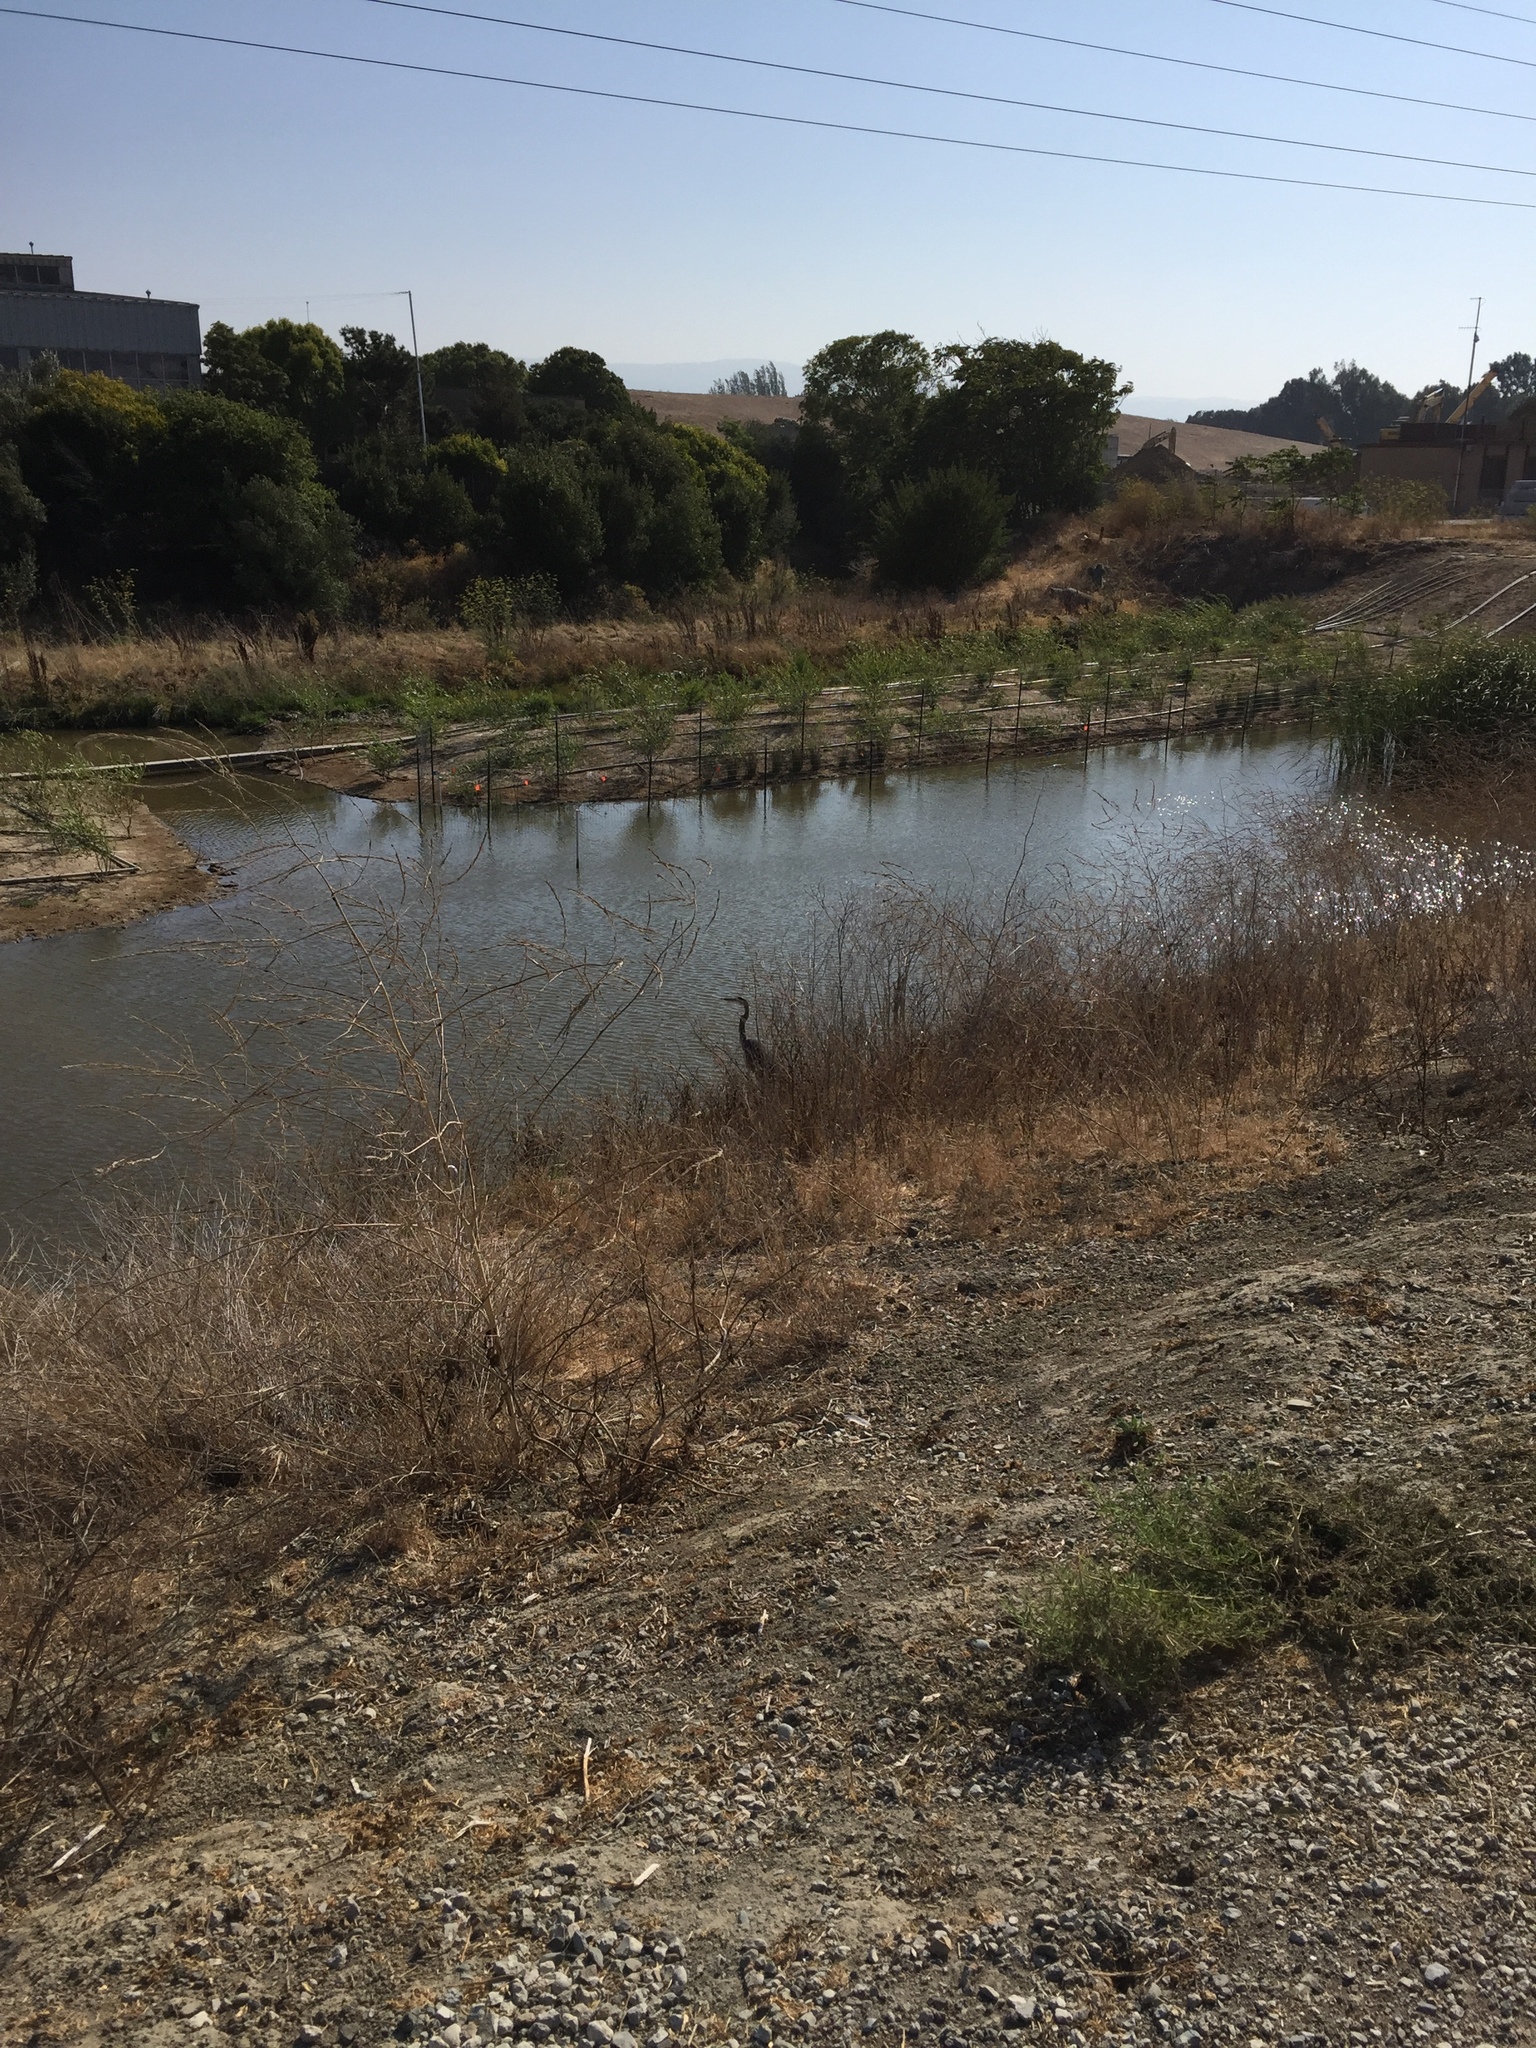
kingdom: Animalia
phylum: Chordata
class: Aves
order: Pelecaniformes
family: Ardeidae
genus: Ardea
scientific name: Ardea herodias
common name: Great blue heron
